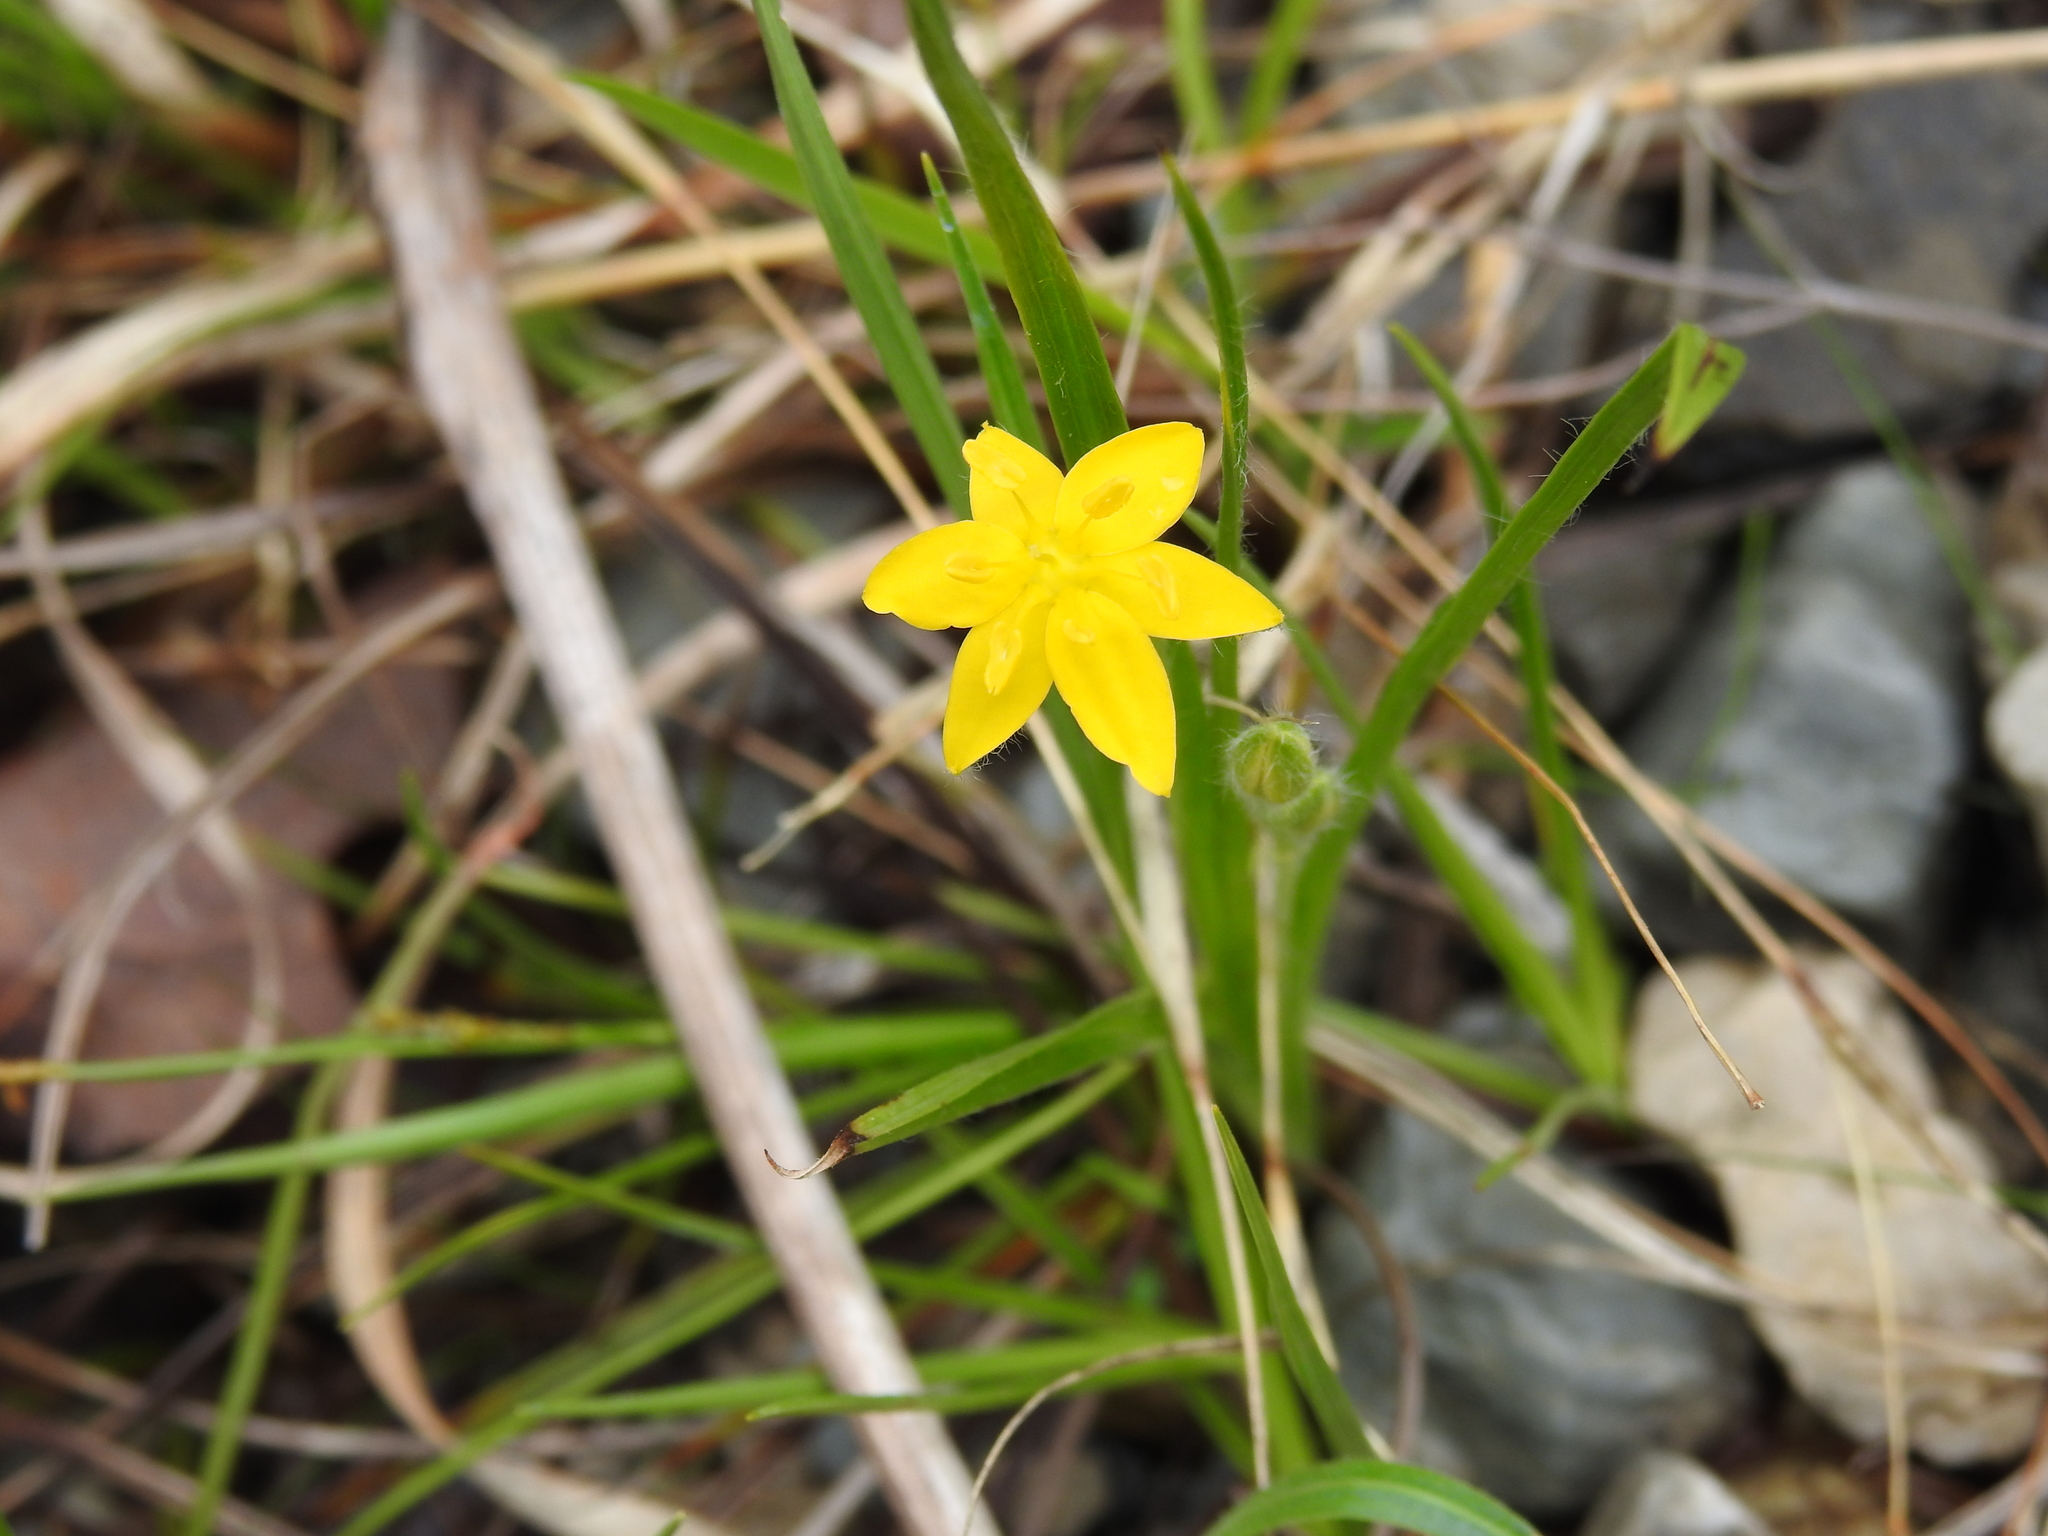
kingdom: Plantae
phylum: Tracheophyta
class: Liliopsida
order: Asparagales
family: Hypoxidaceae
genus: Hypoxis
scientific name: Hypoxis hirsuta
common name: Common goldstar
